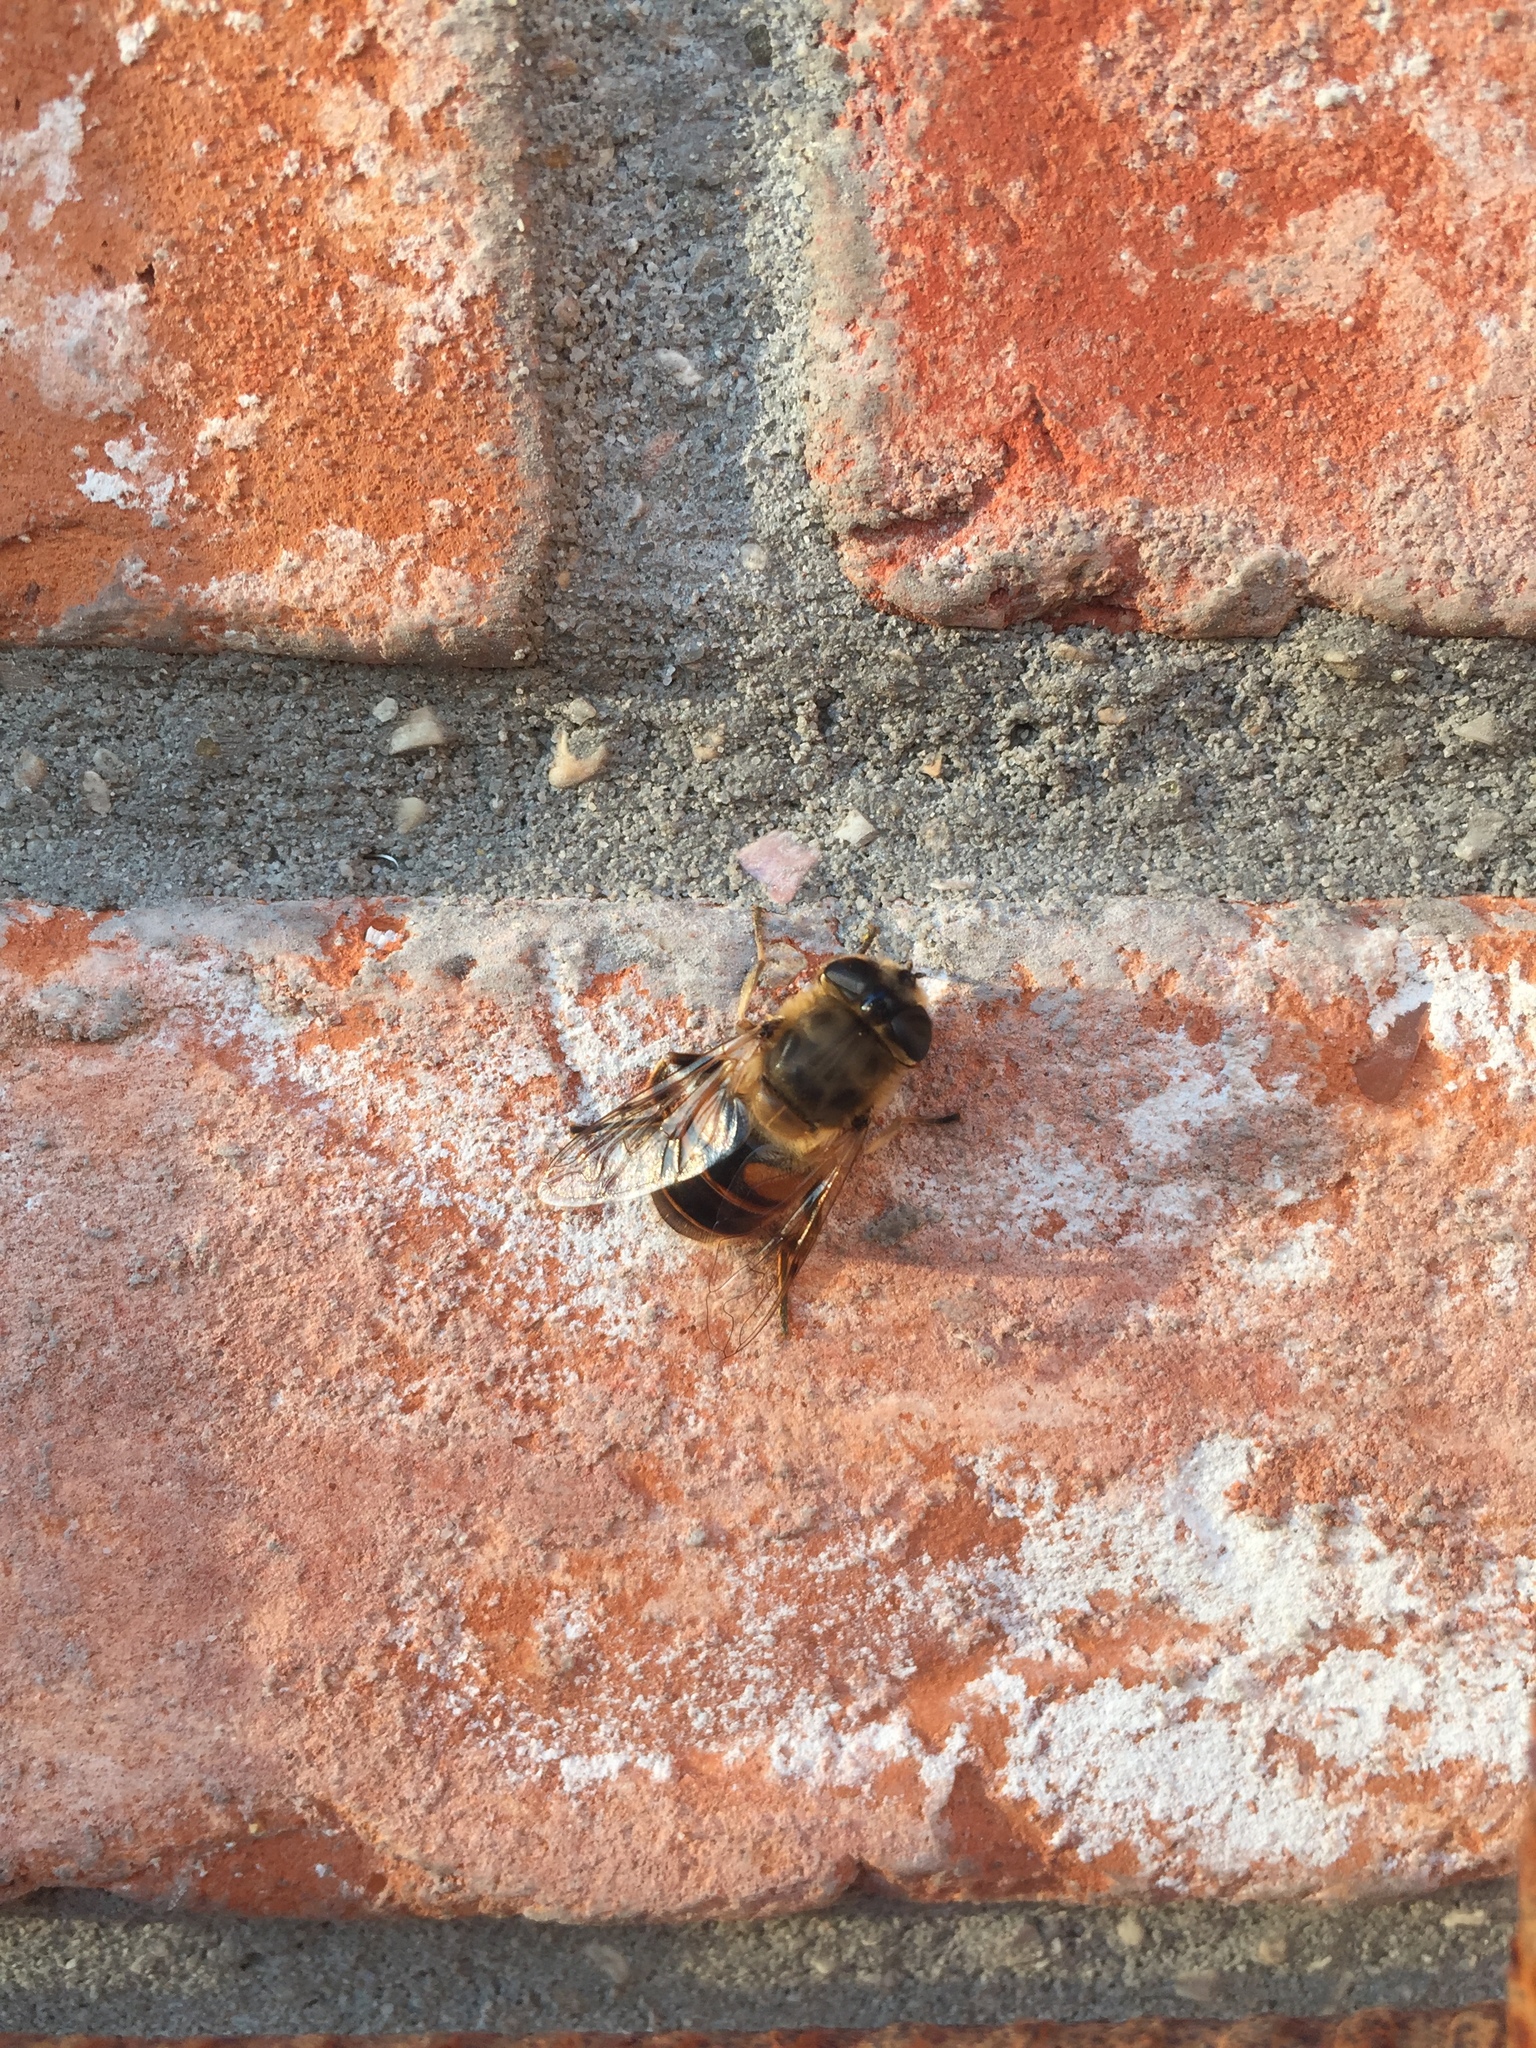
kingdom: Animalia
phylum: Arthropoda
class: Insecta
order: Diptera
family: Syrphidae
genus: Eristalis
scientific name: Eristalis tenax
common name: Drone fly
